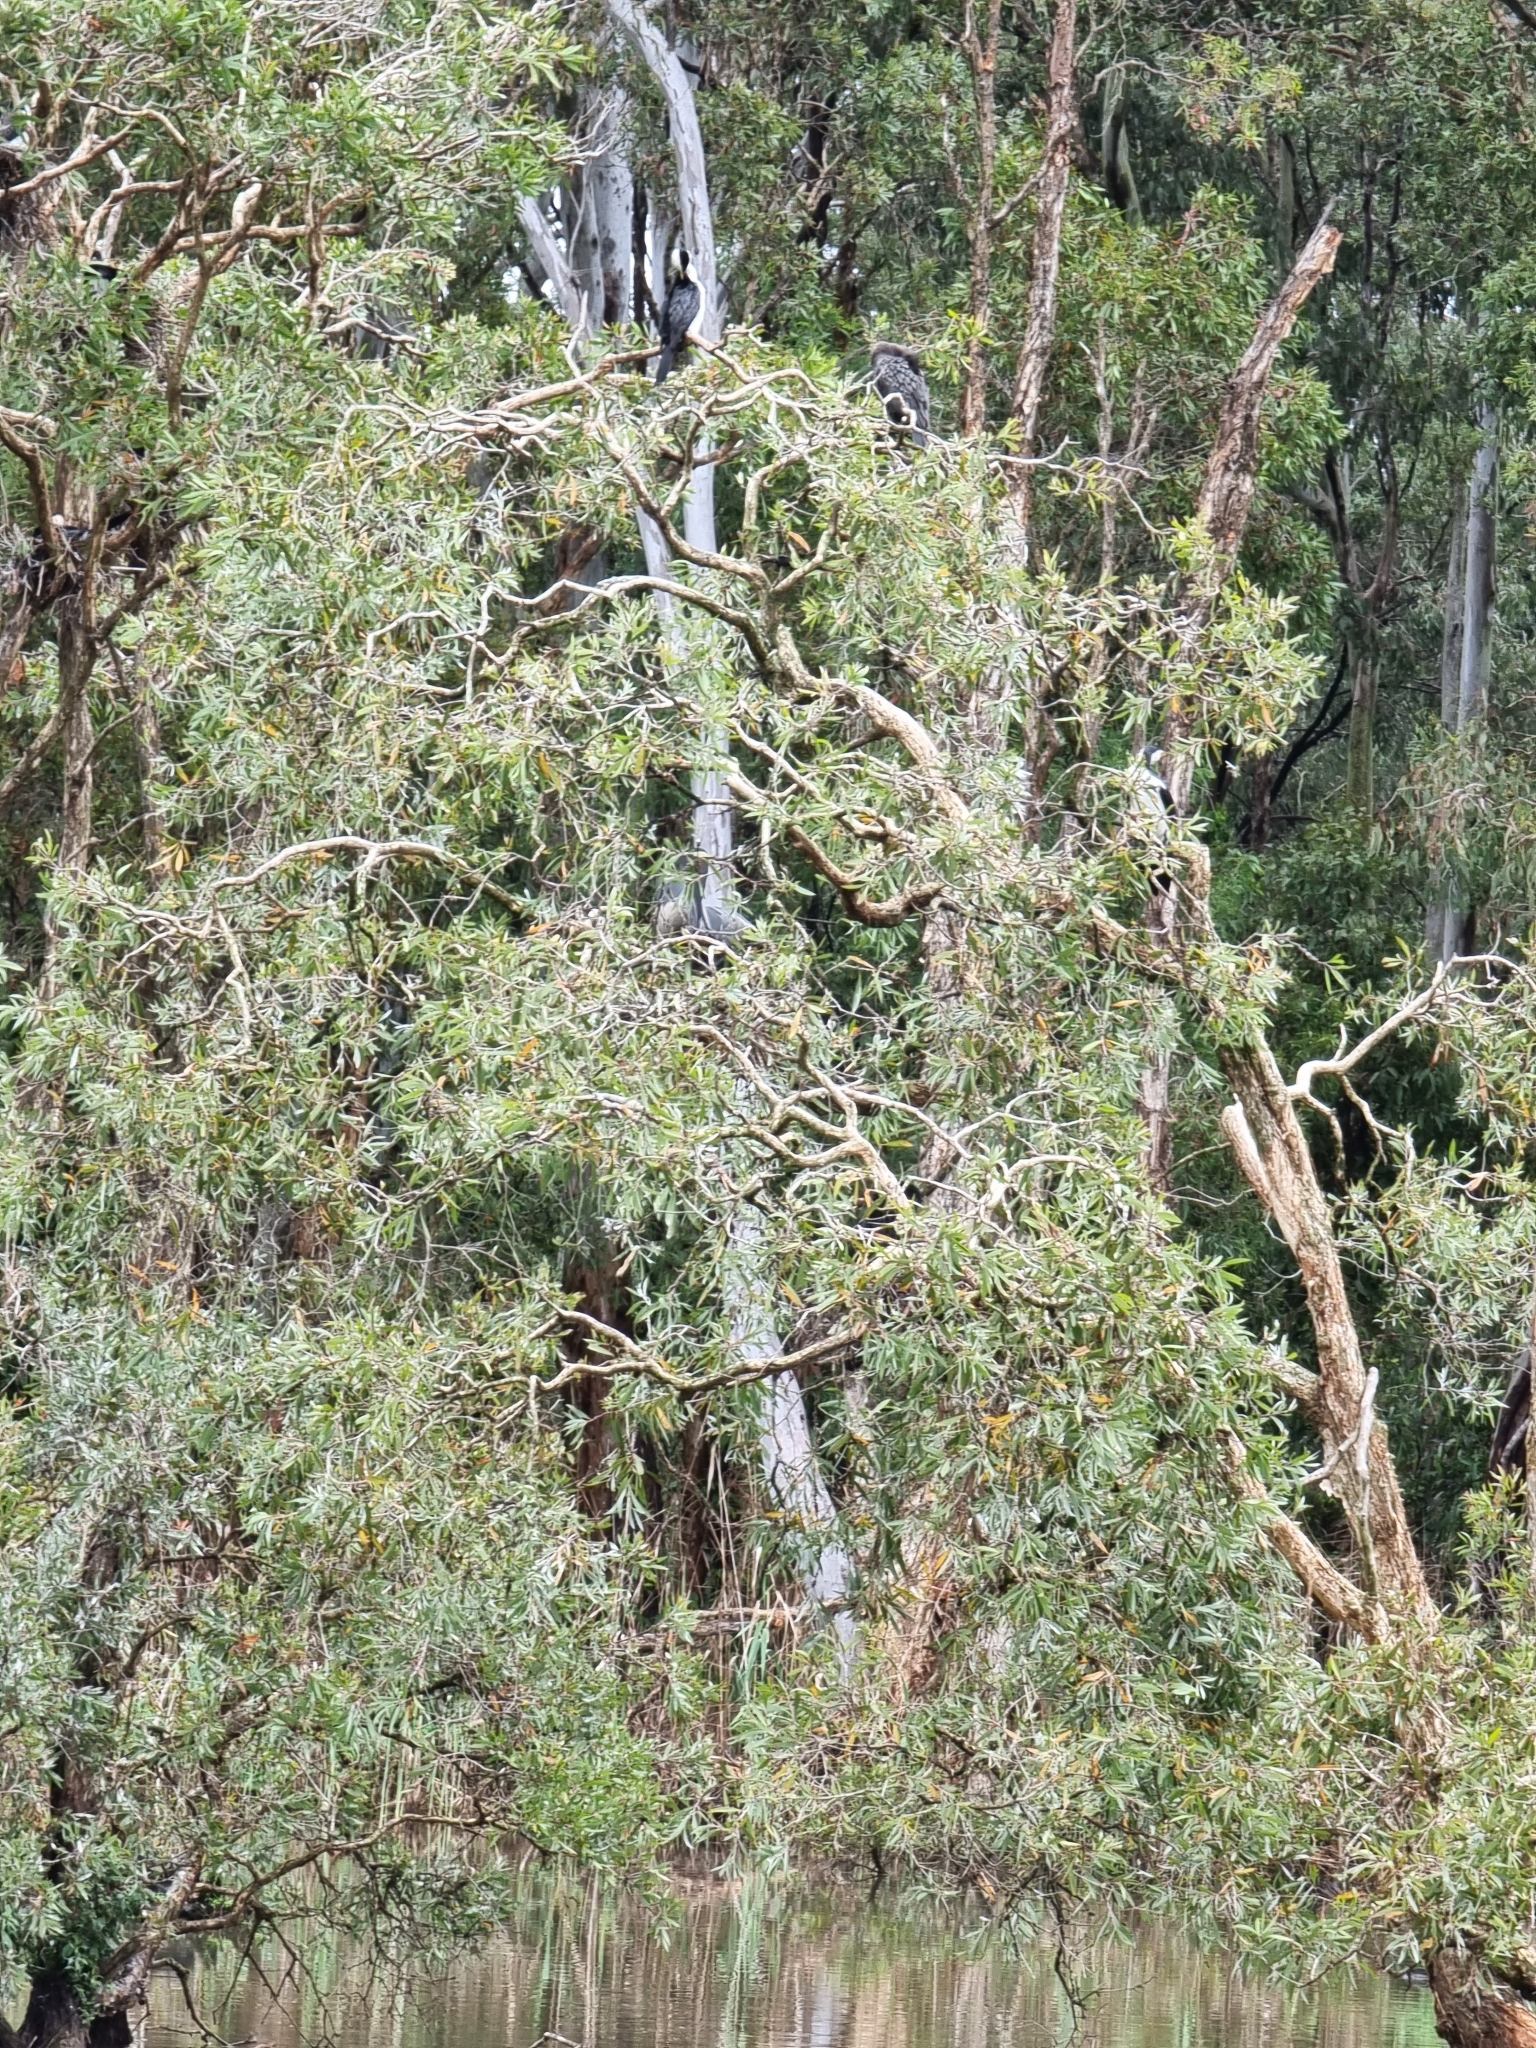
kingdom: Animalia
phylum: Chordata
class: Aves
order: Suliformes
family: Phalacrocoracidae
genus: Microcarbo
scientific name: Microcarbo melanoleucos
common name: Little pied cormorant
